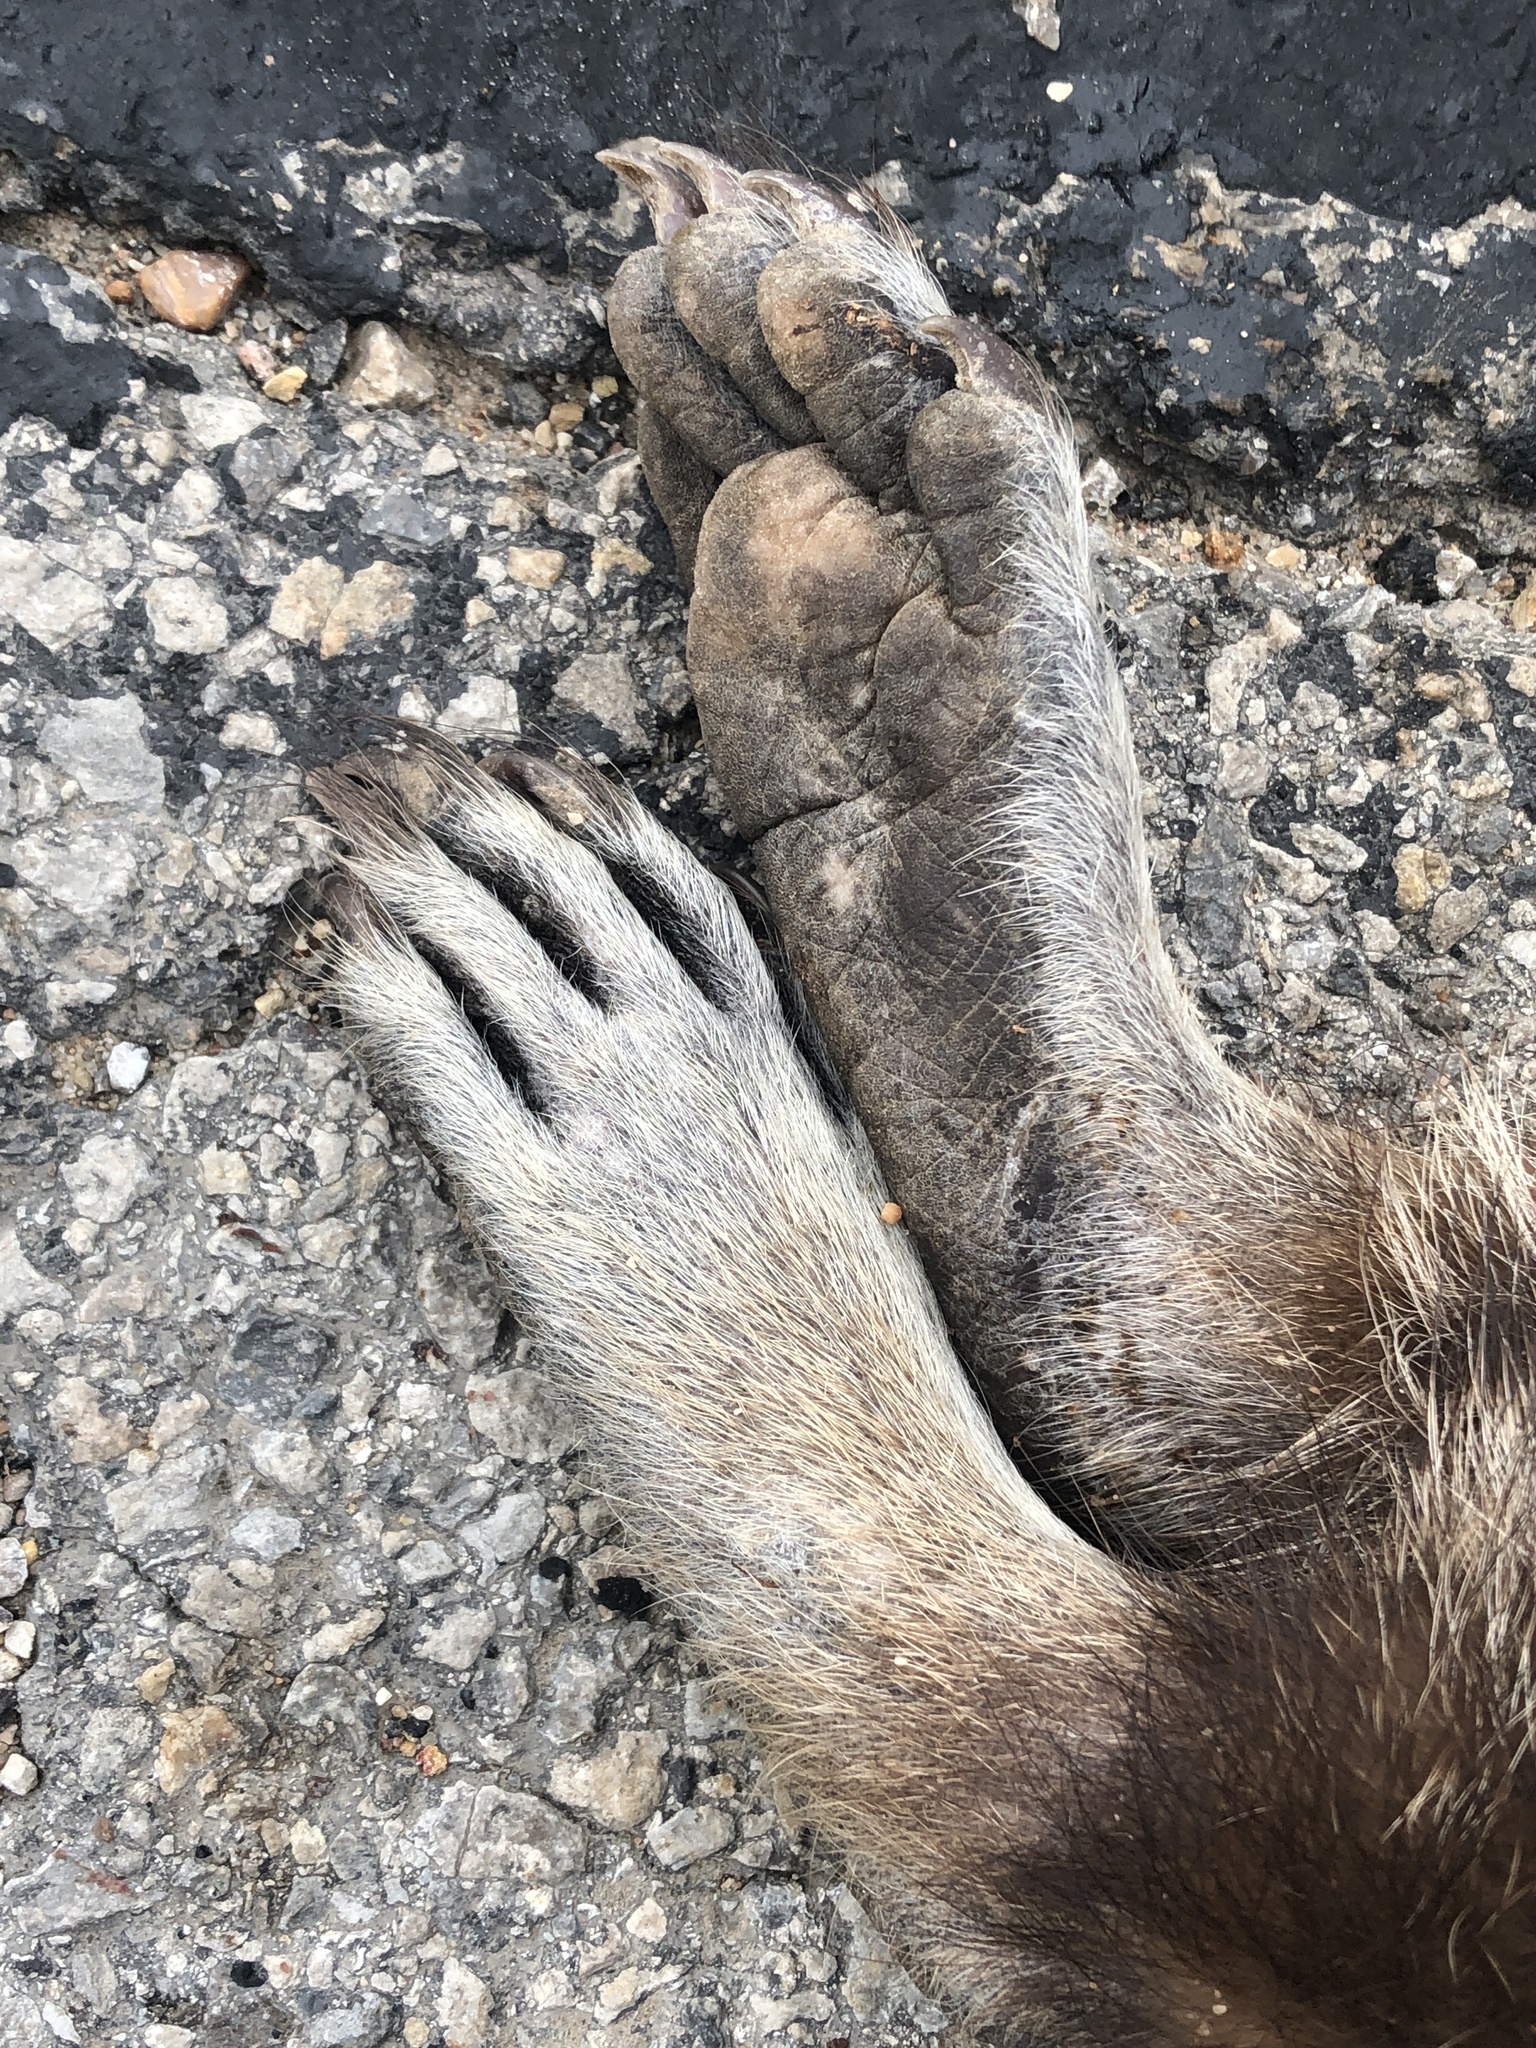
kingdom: Animalia
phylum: Chordata
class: Mammalia
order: Carnivora
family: Procyonidae
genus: Procyon
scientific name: Procyon lotor
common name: Raccoon
